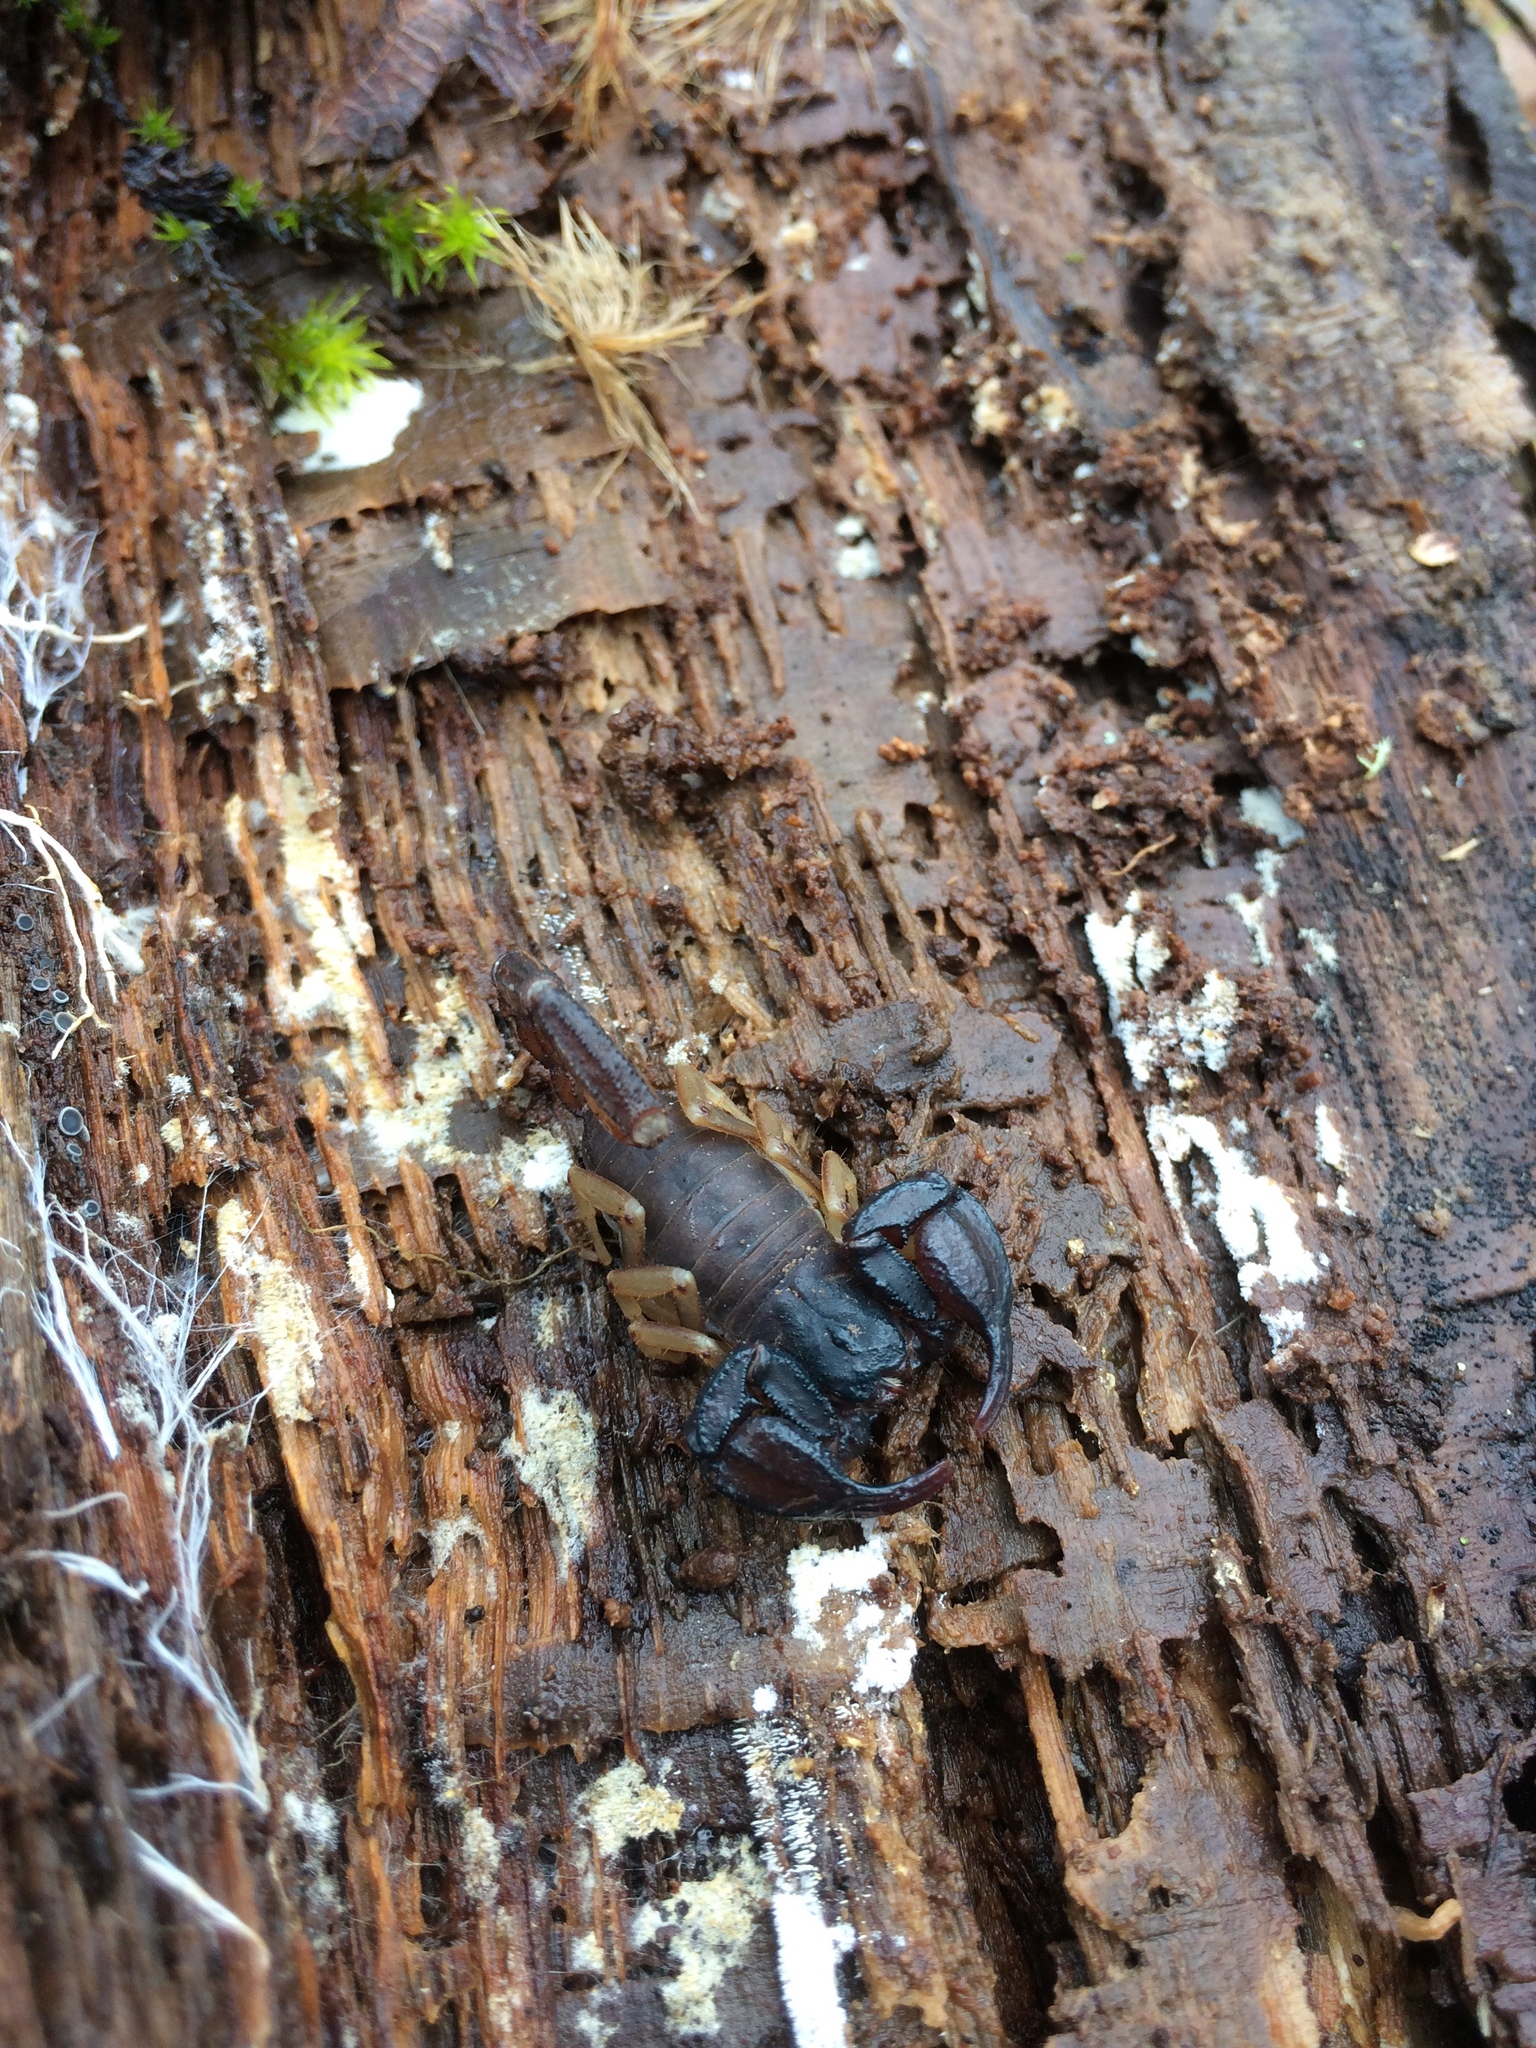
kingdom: Animalia
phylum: Arthropoda
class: Arachnida
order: Scorpiones
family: Chactidae
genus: Uroctonus
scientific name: Uroctonus mordax
